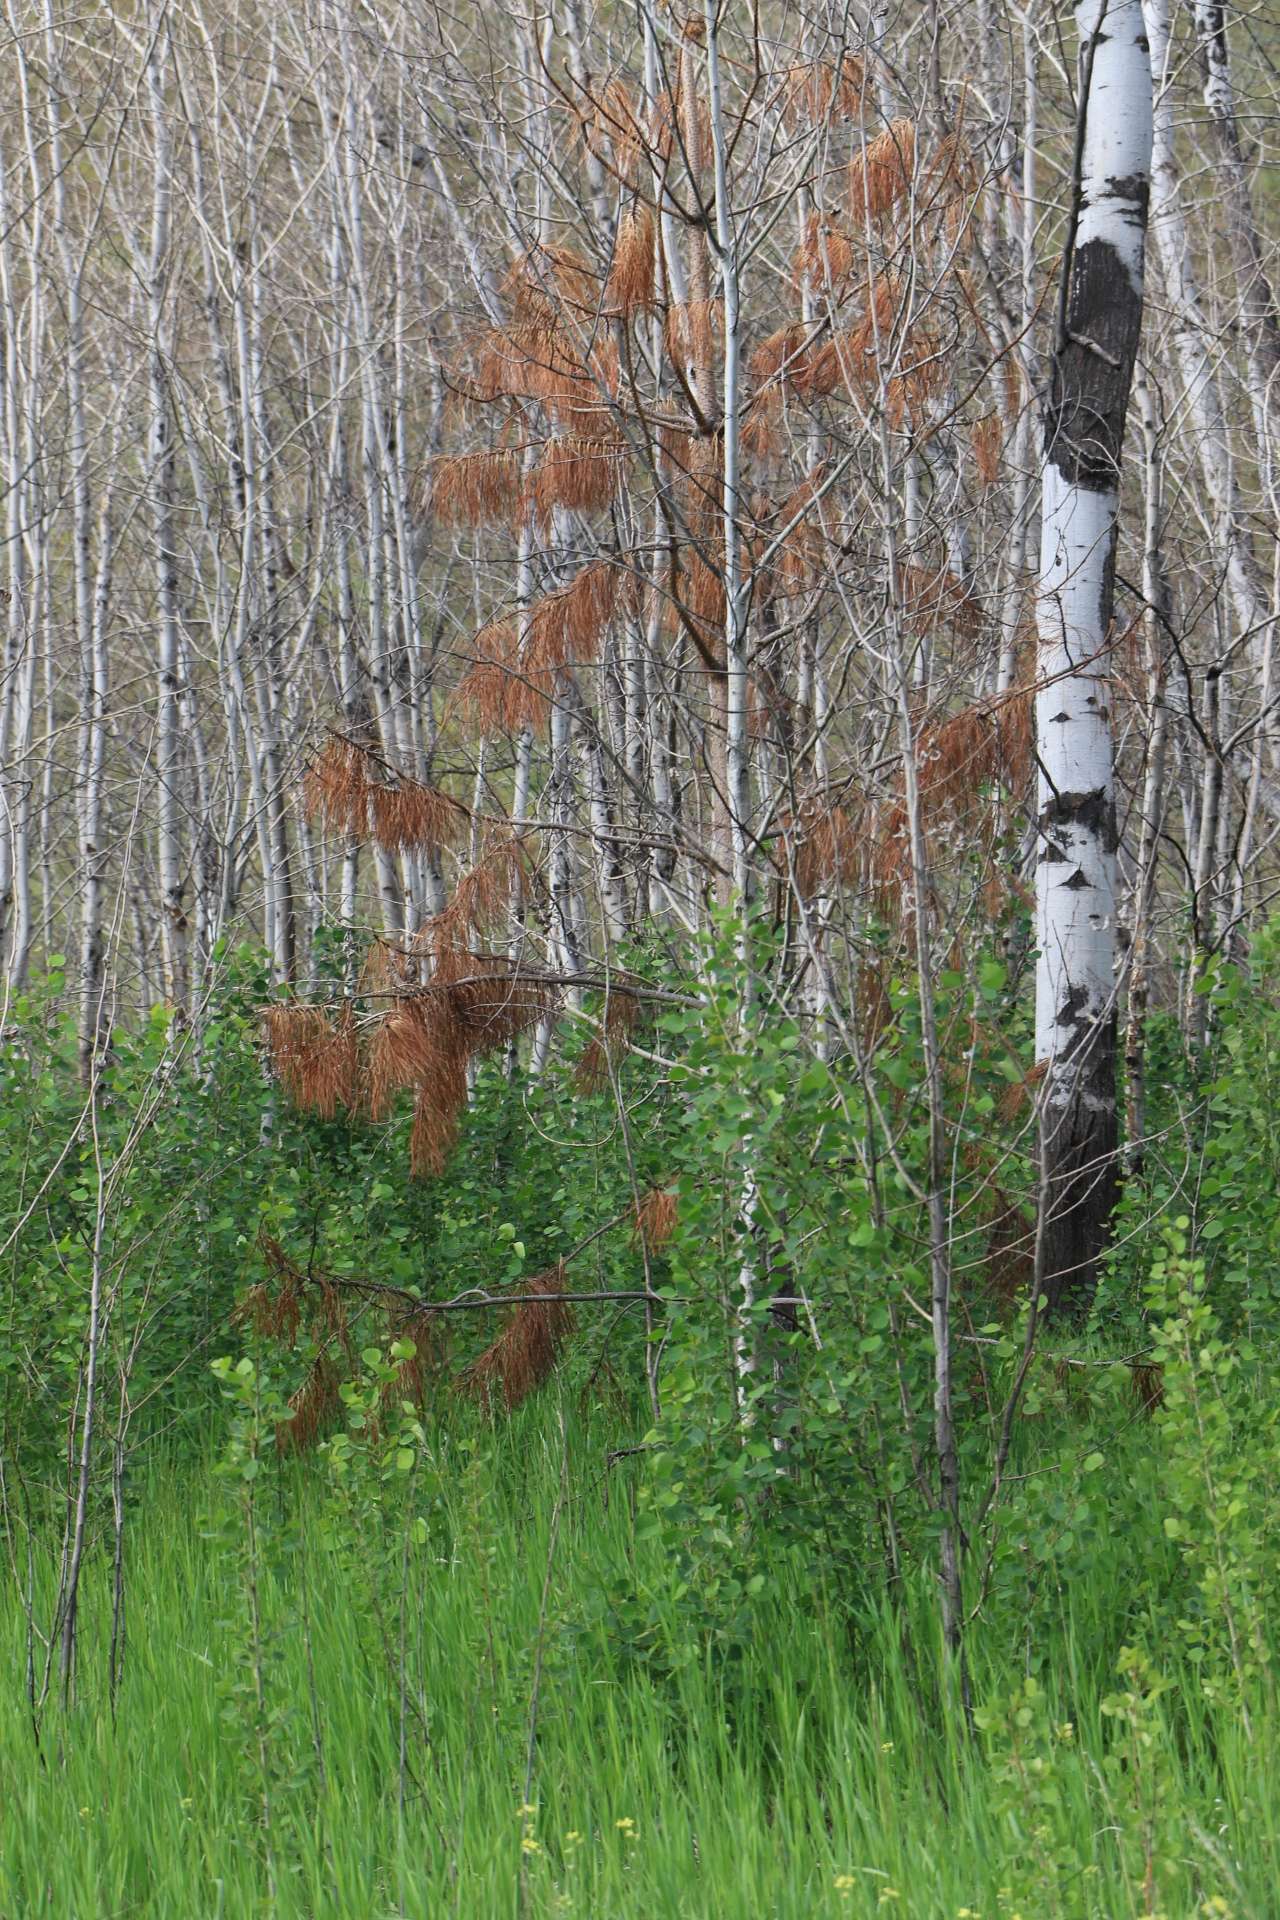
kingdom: Plantae
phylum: Tracheophyta
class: Pinopsida
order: Pinales
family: Pinaceae
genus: Pinus
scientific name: Pinus ponderosa
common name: Western yellow-pine
